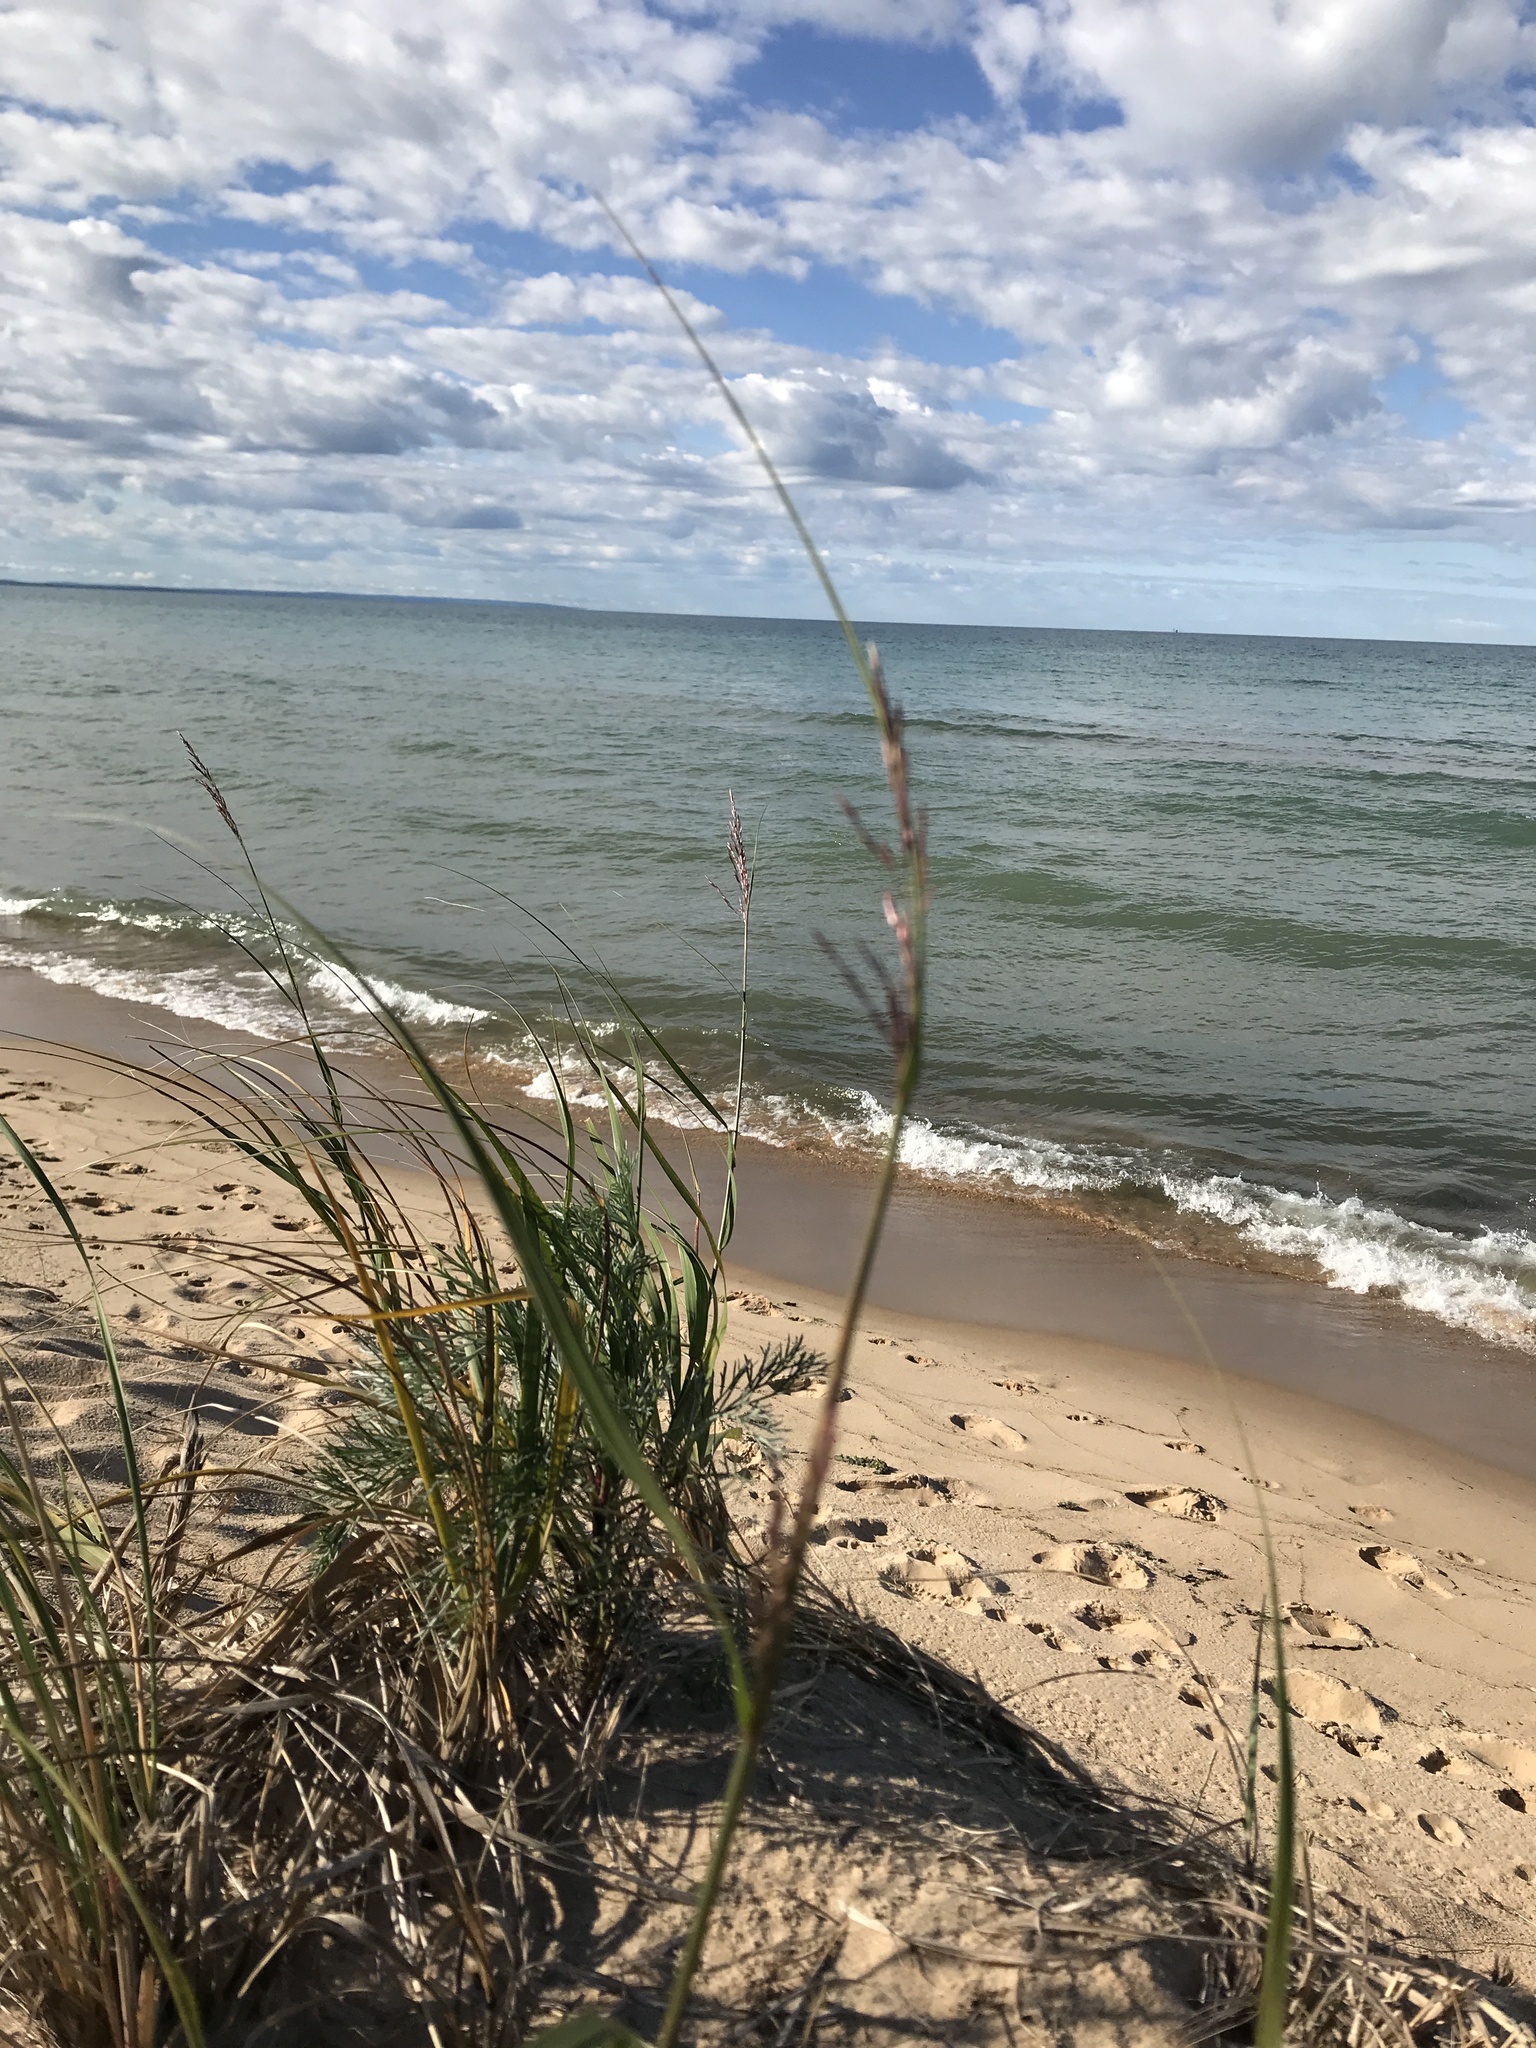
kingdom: Plantae
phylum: Tracheophyta
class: Liliopsida
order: Poales
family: Poaceae
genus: Calamagrostis
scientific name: Calamagrostis breviligulata
